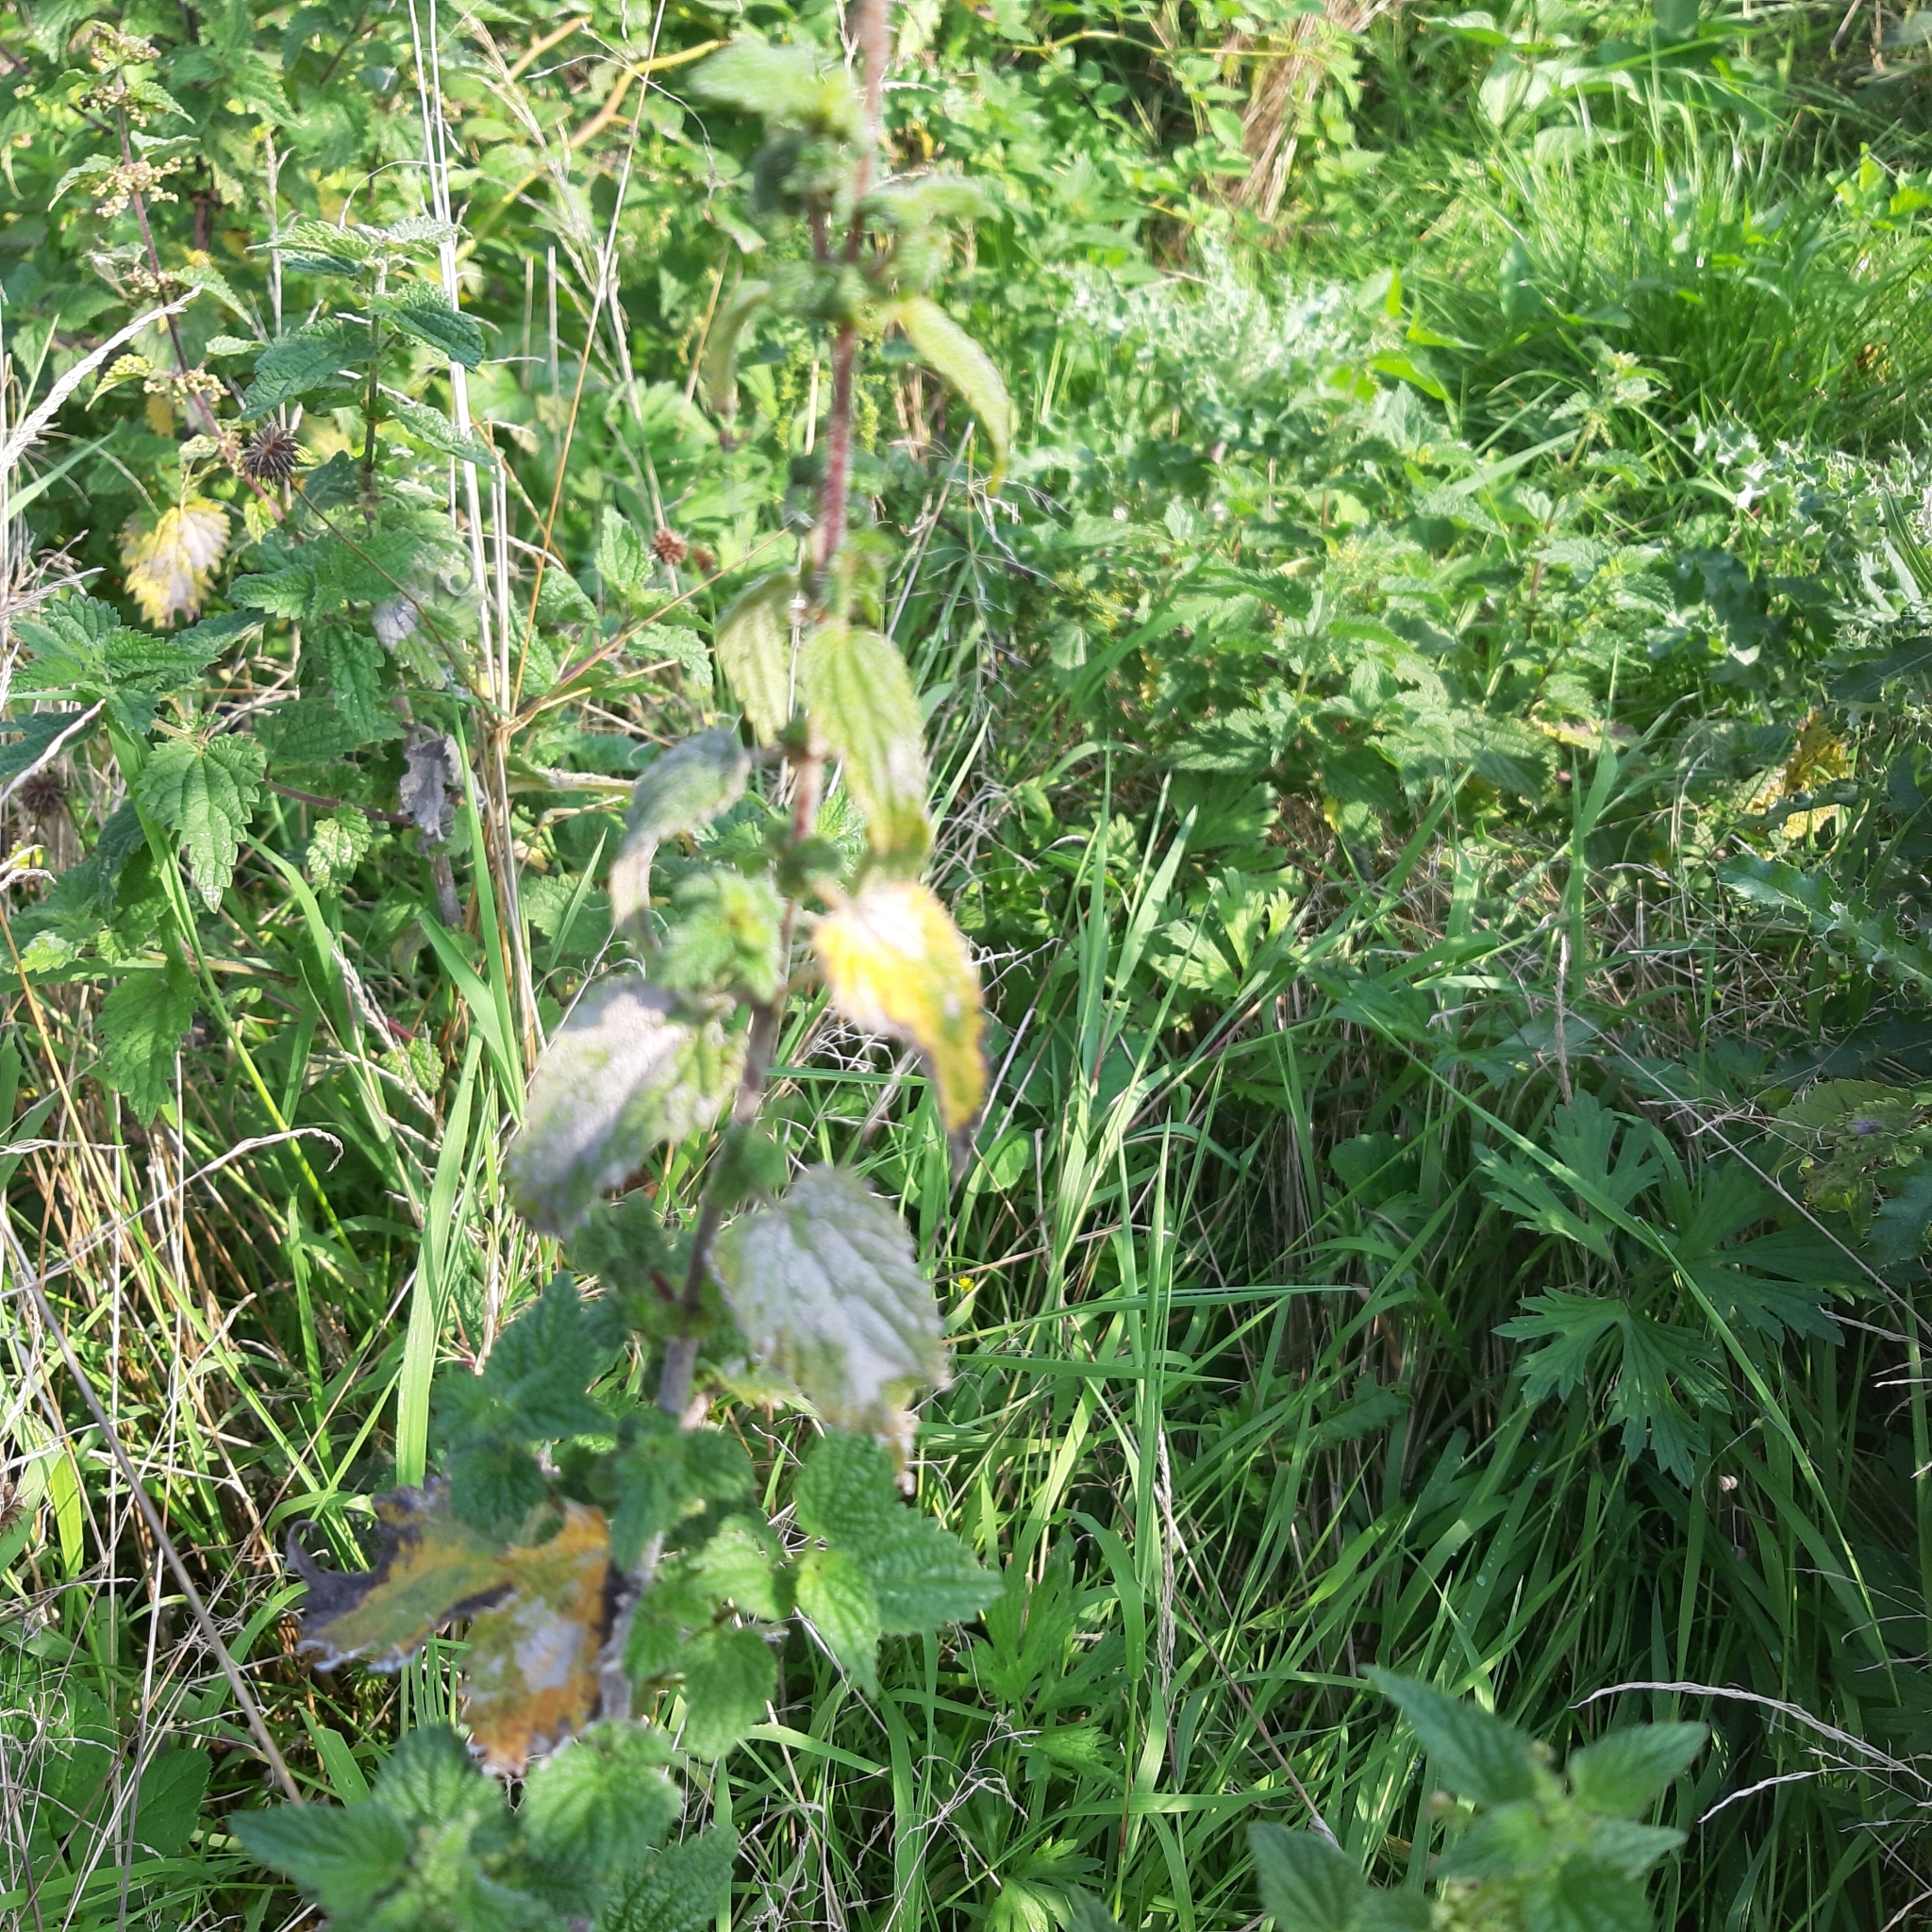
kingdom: Plantae
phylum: Tracheophyta
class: Magnoliopsida
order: Rosales
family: Urticaceae
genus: Urtica
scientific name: Urtica dioica
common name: Common nettle
